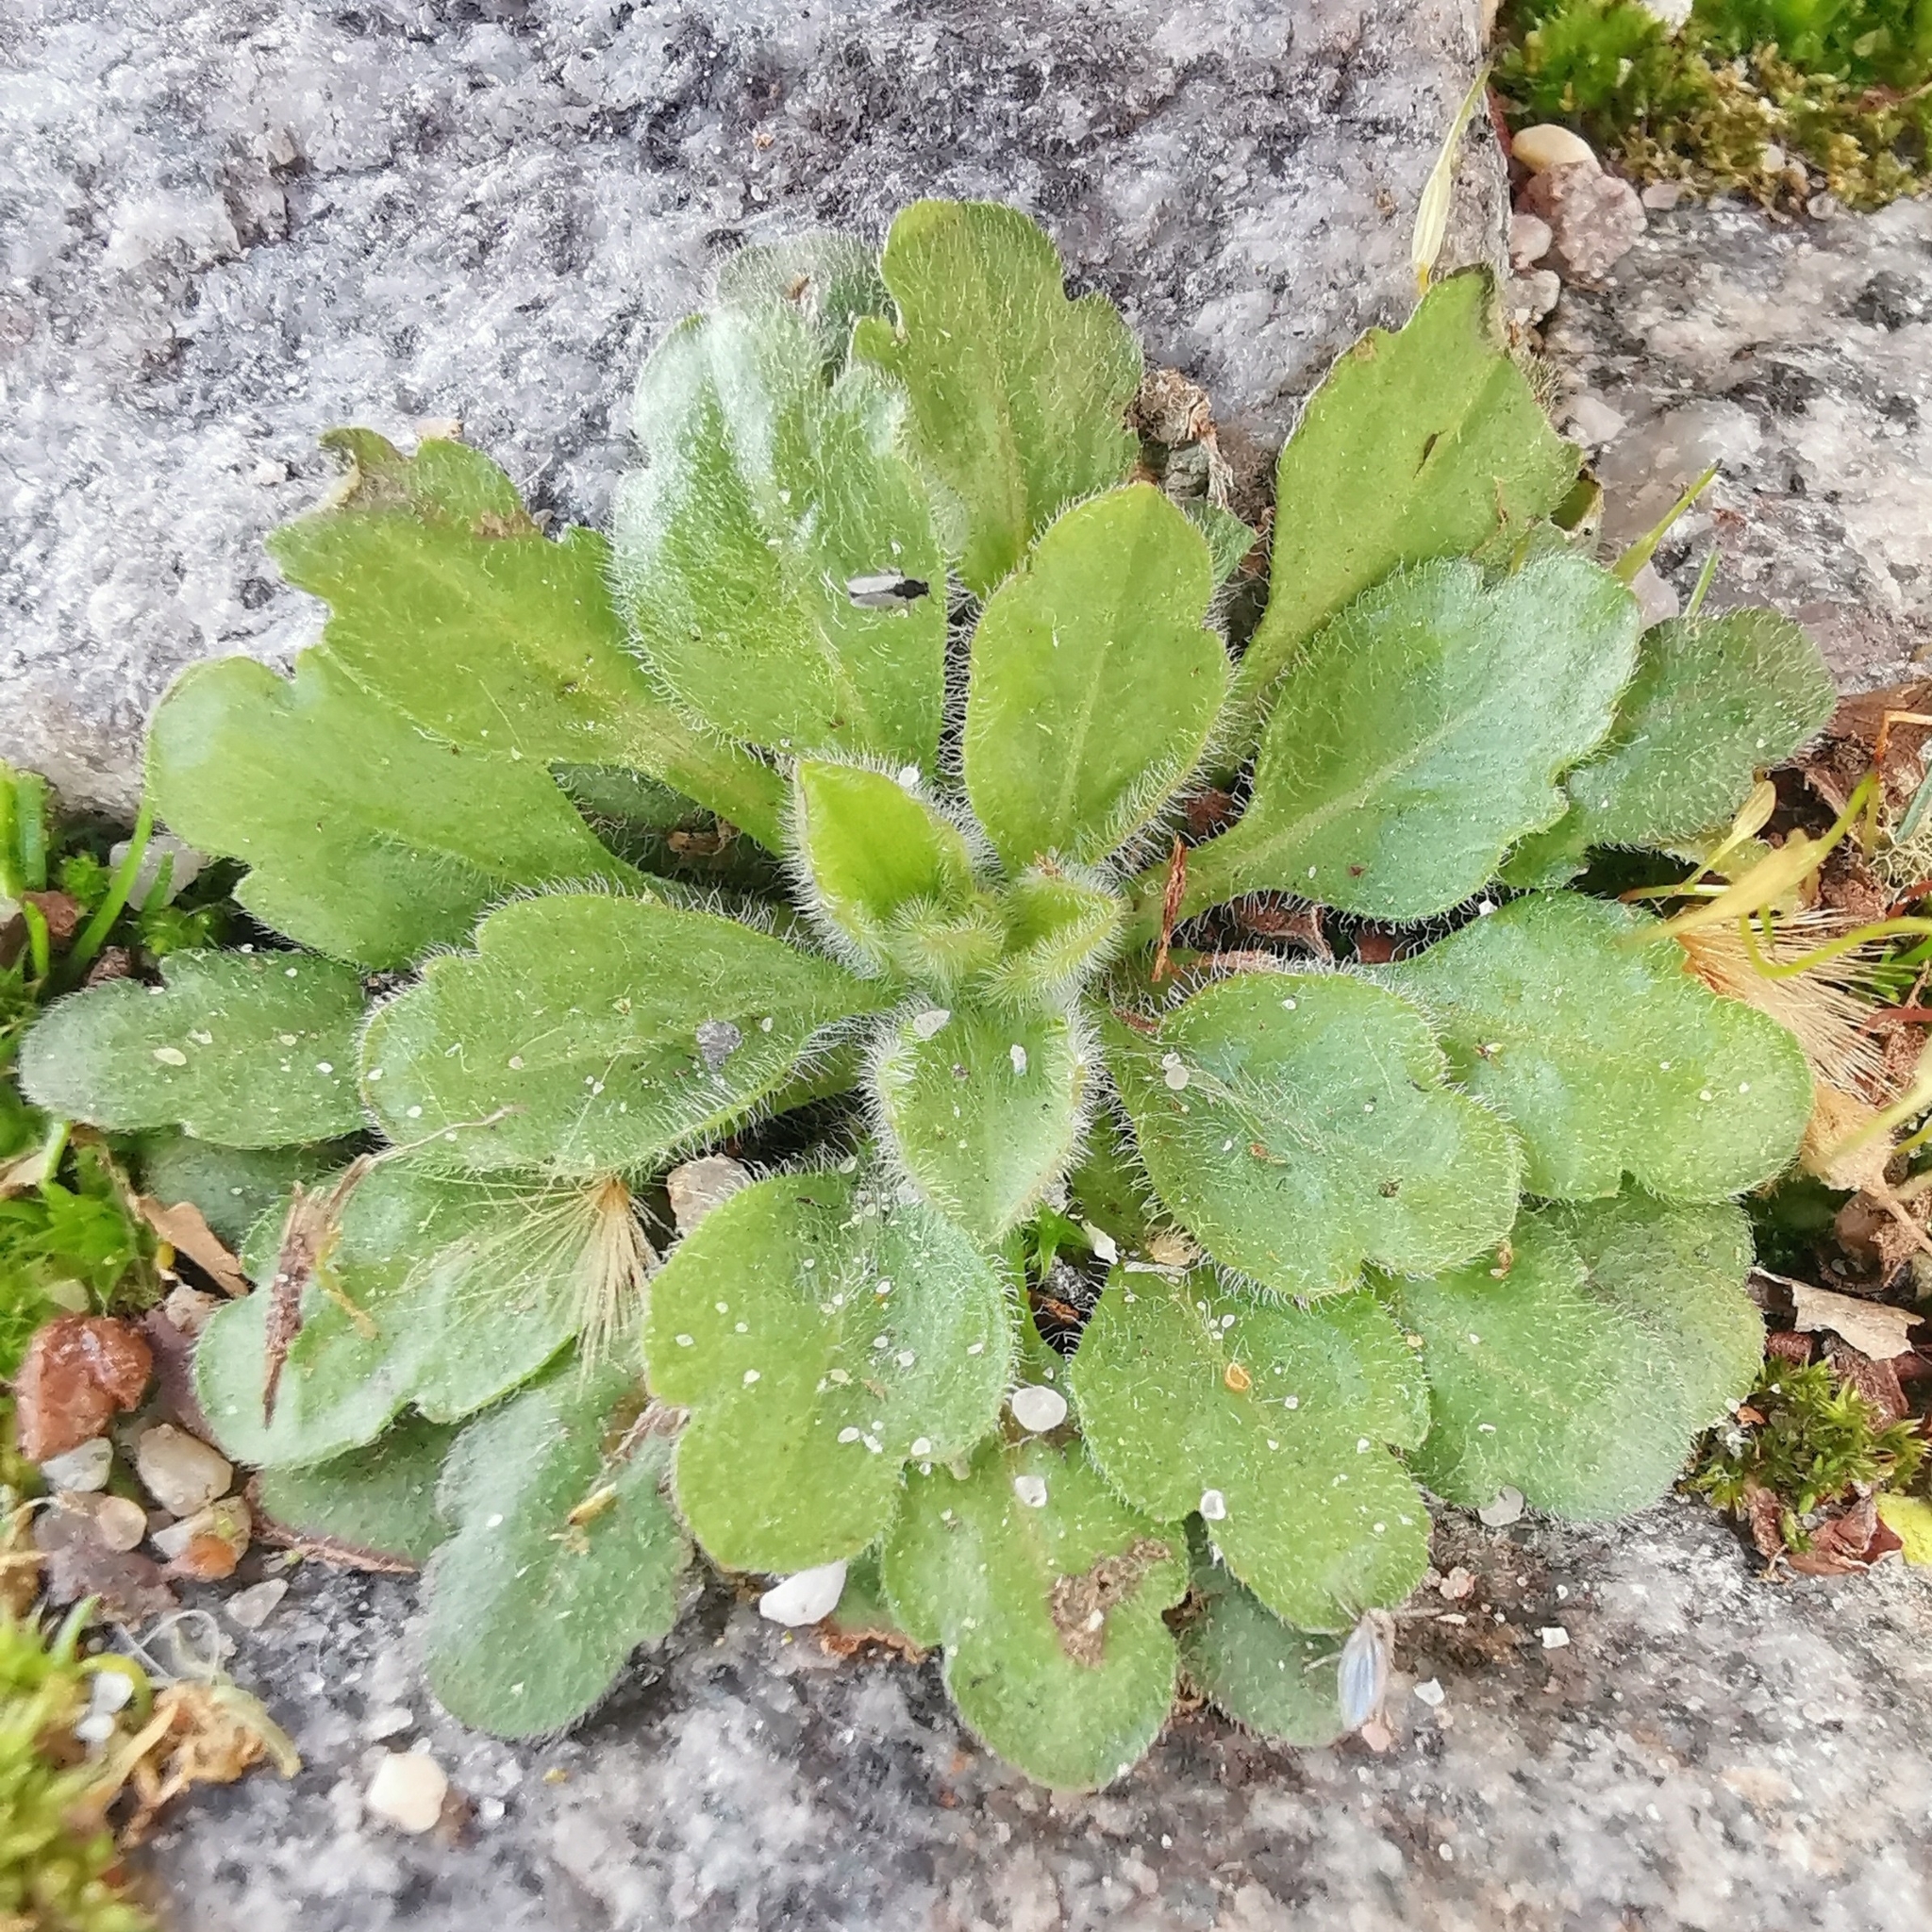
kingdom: Plantae
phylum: Tracheophyta
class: Magnoliopsida
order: Asterales
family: Asteraceae
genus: Erigeron
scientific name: Erigeron canadensis
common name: Canadian fleabane
